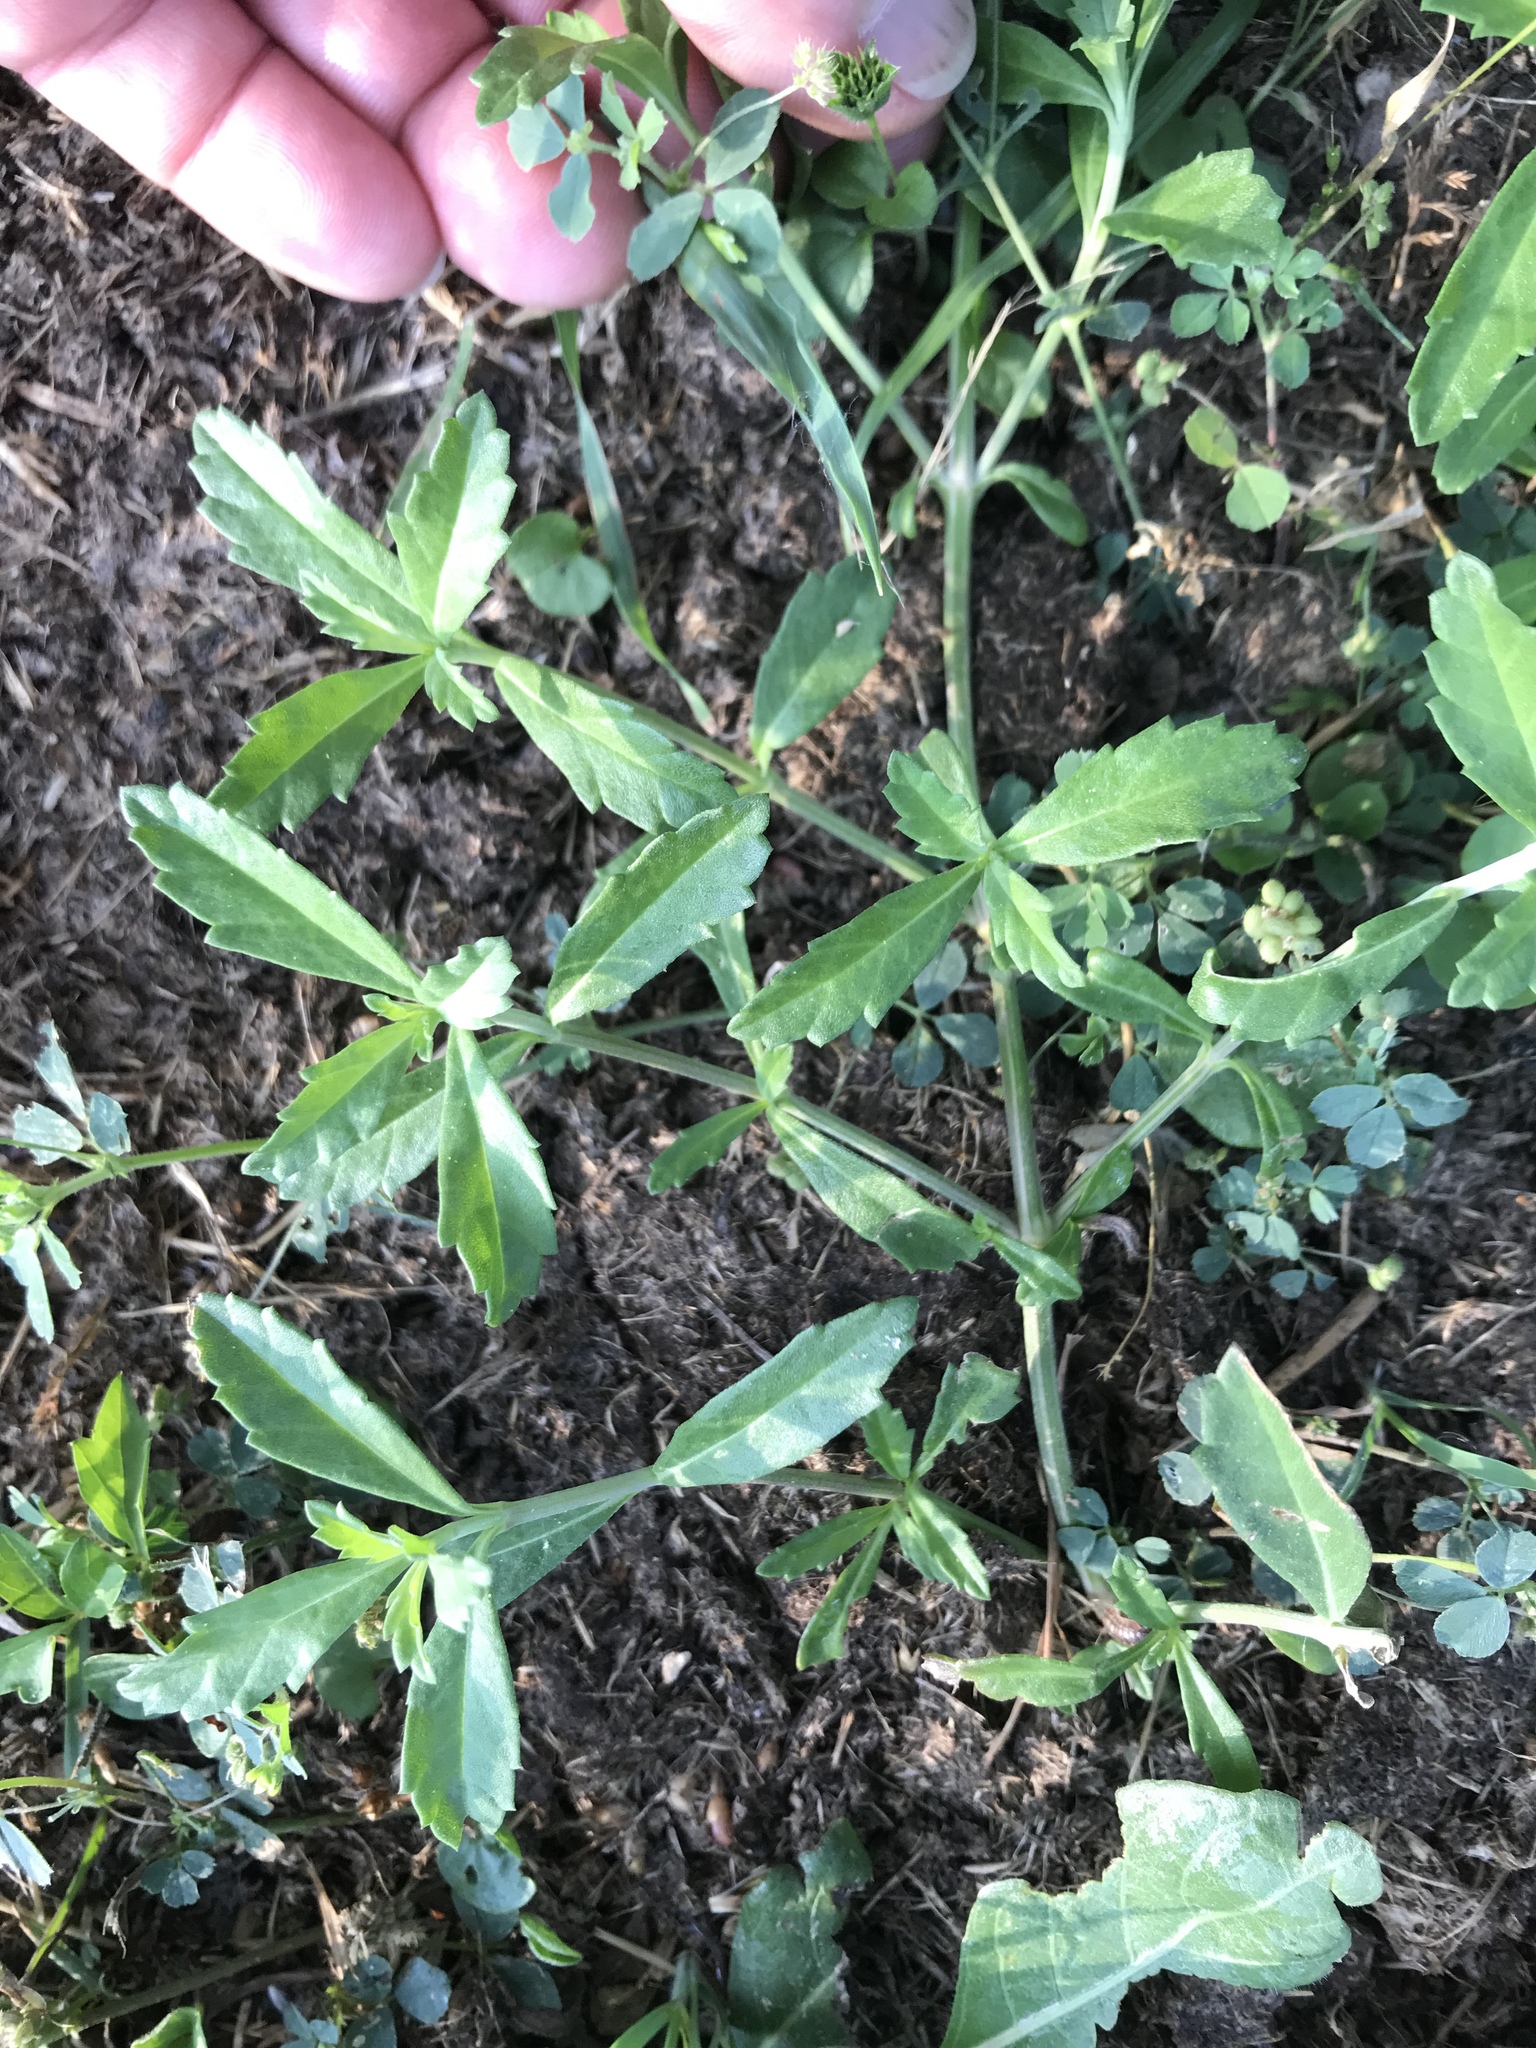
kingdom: Plantae
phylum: Tracheophyta
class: Magnoliopsida
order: Lamiales
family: Verbenaceae
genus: Phyla
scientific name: Phyla nodiflora
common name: Frogfruit
